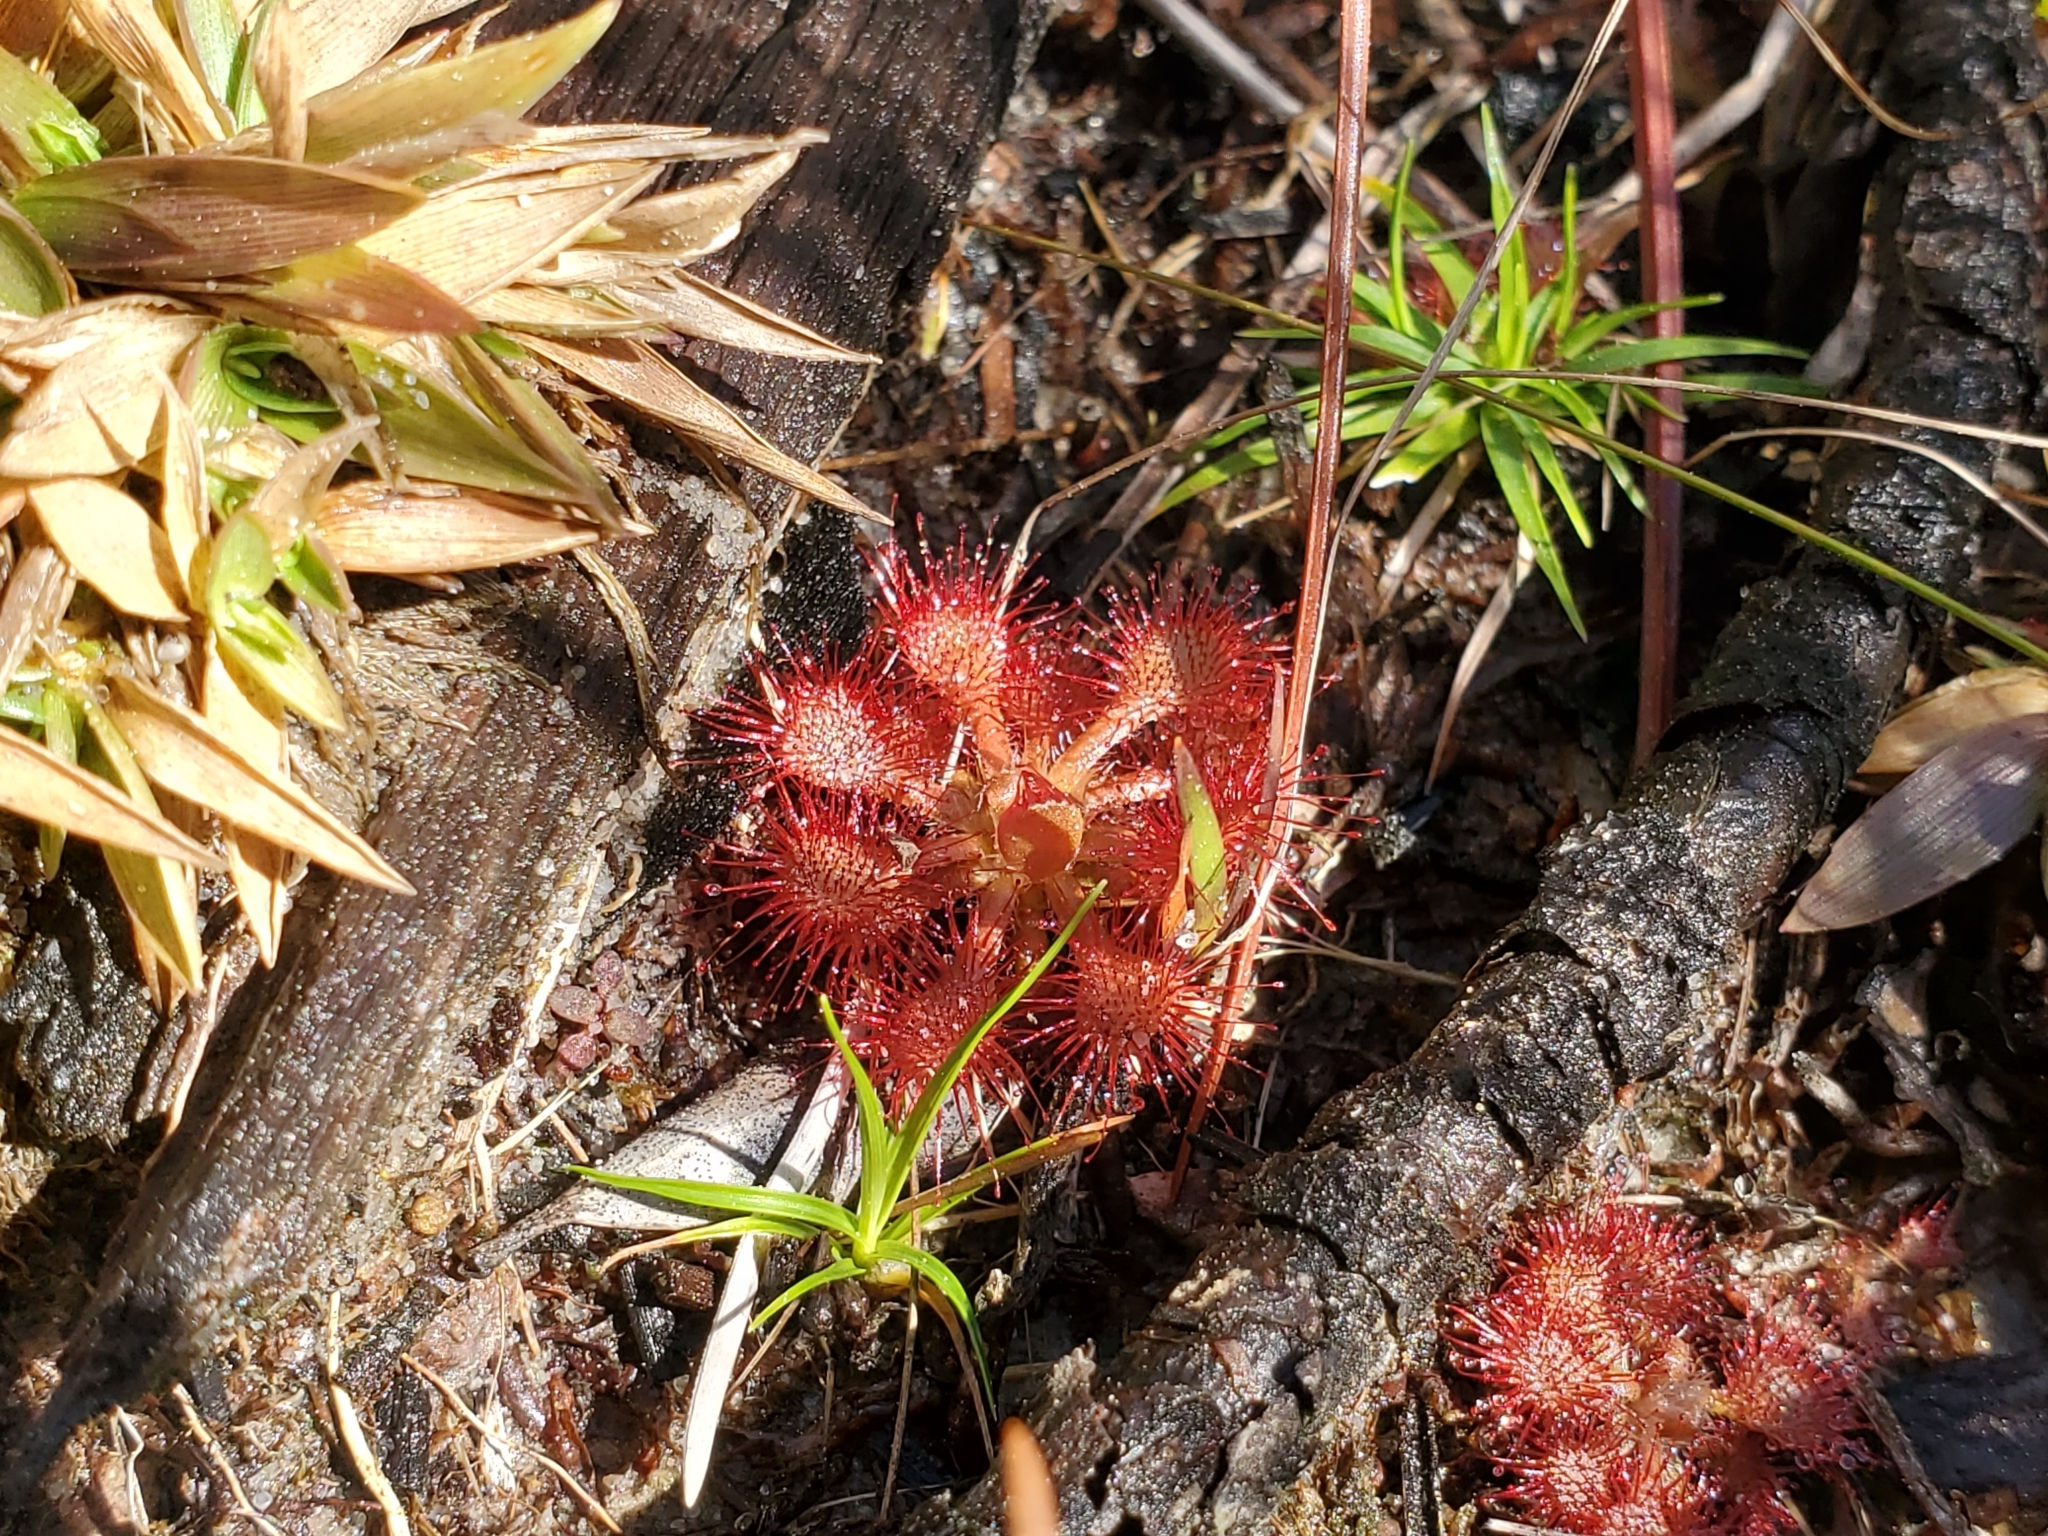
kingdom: Plantae
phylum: Tracheophyta
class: Magnoliopsida
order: Caryophyllales
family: Droseraceae
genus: Drosera
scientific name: Drosera capillaris
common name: Pink sundew
